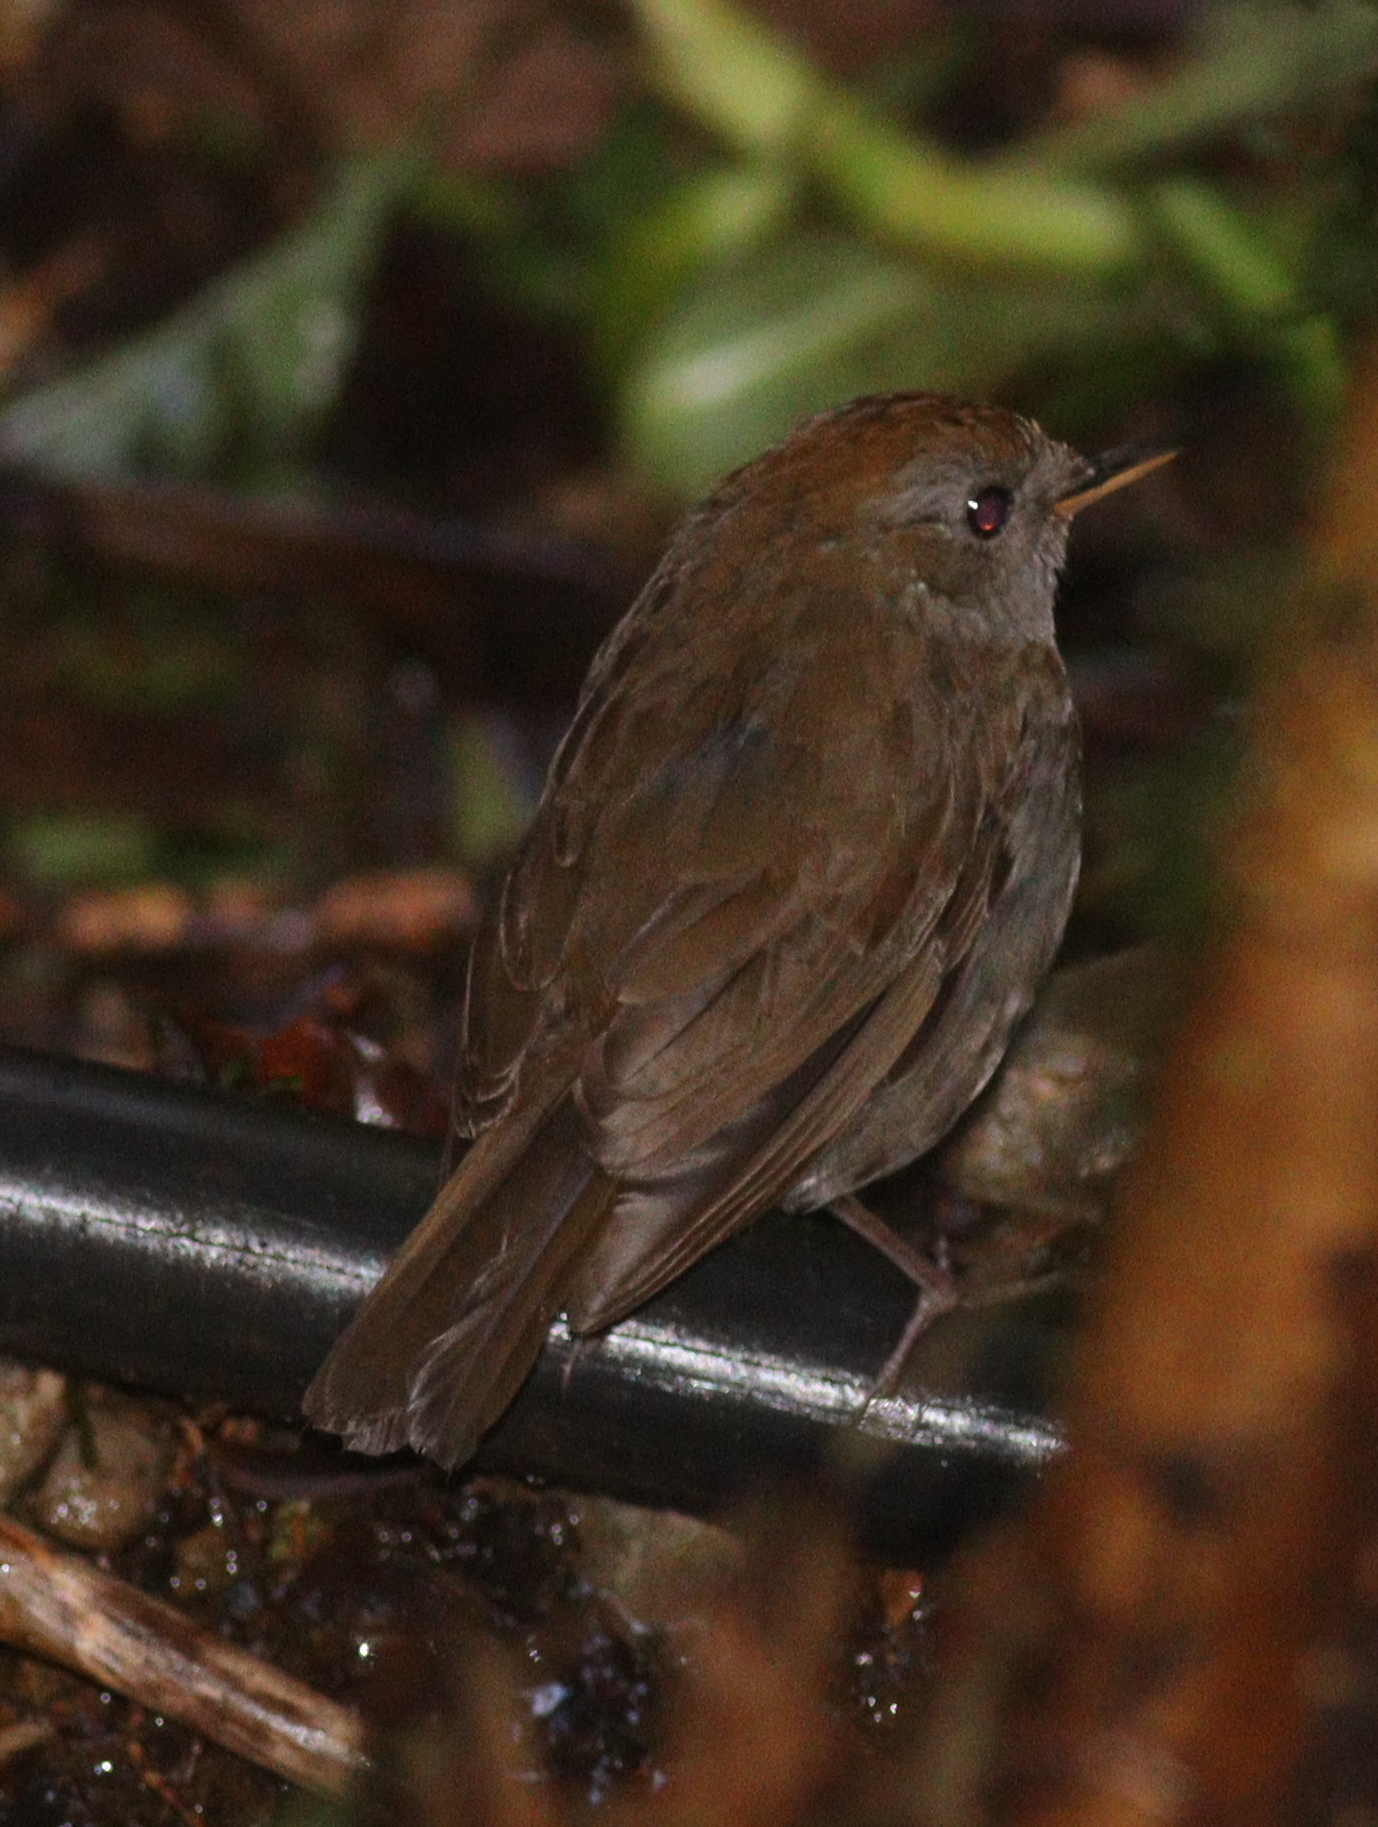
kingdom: Animalia
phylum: Chordata
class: Aves
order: Passeriformes
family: Turdidae
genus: Catharus
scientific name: Catharus frantzii
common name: Ruddy-capped nightingale-thrush
